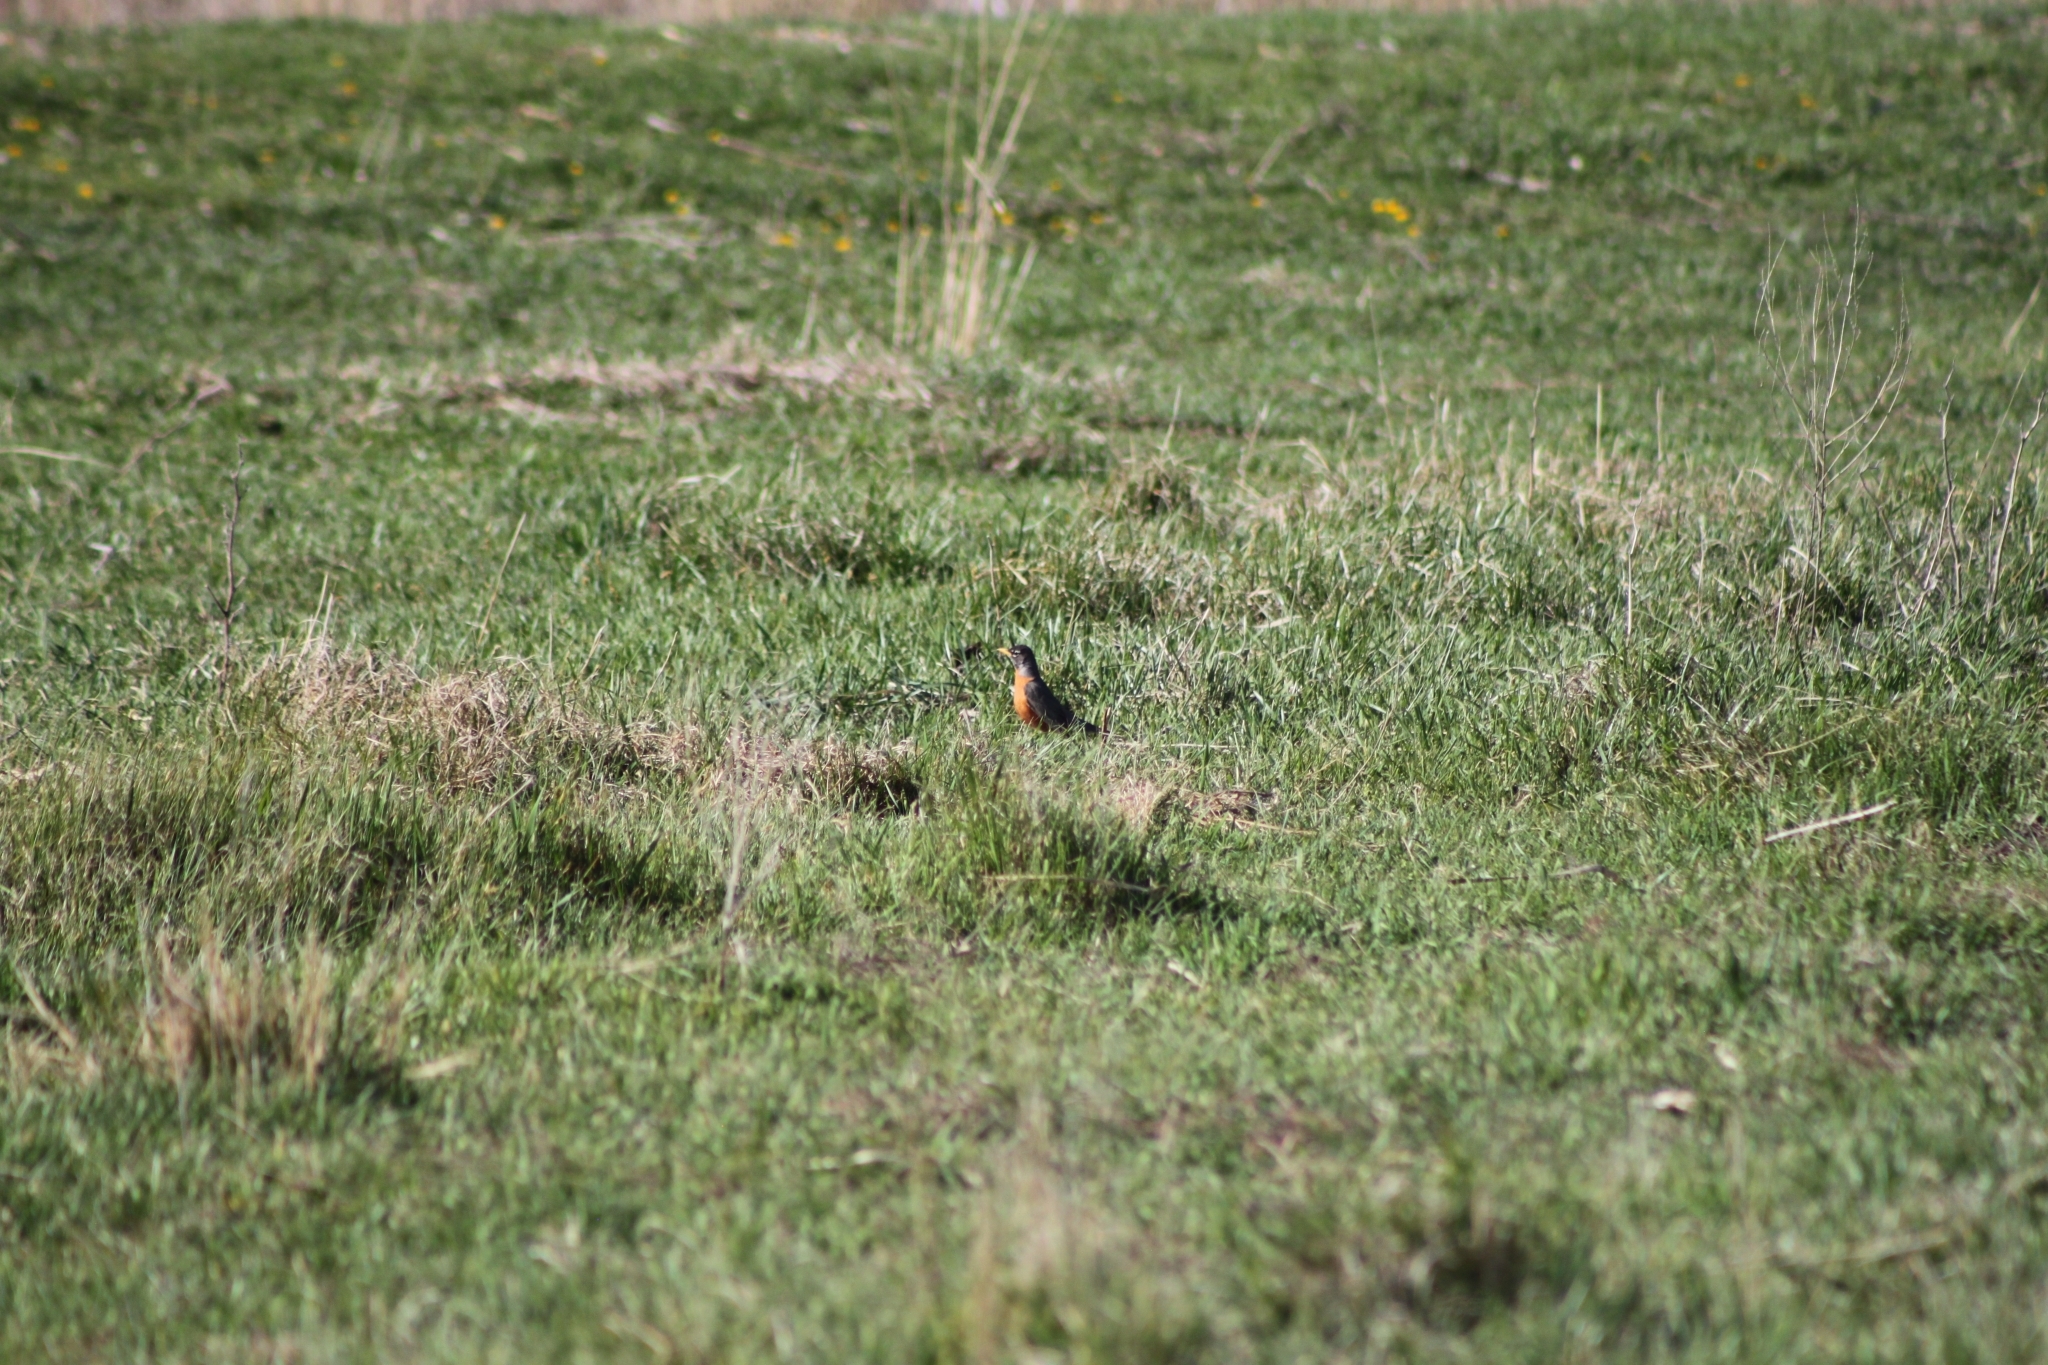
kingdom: Animalia
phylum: Chordata
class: Aves
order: Passeriformes
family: Turdidae
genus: Turdus
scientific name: Turdus migratorius
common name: American robin
